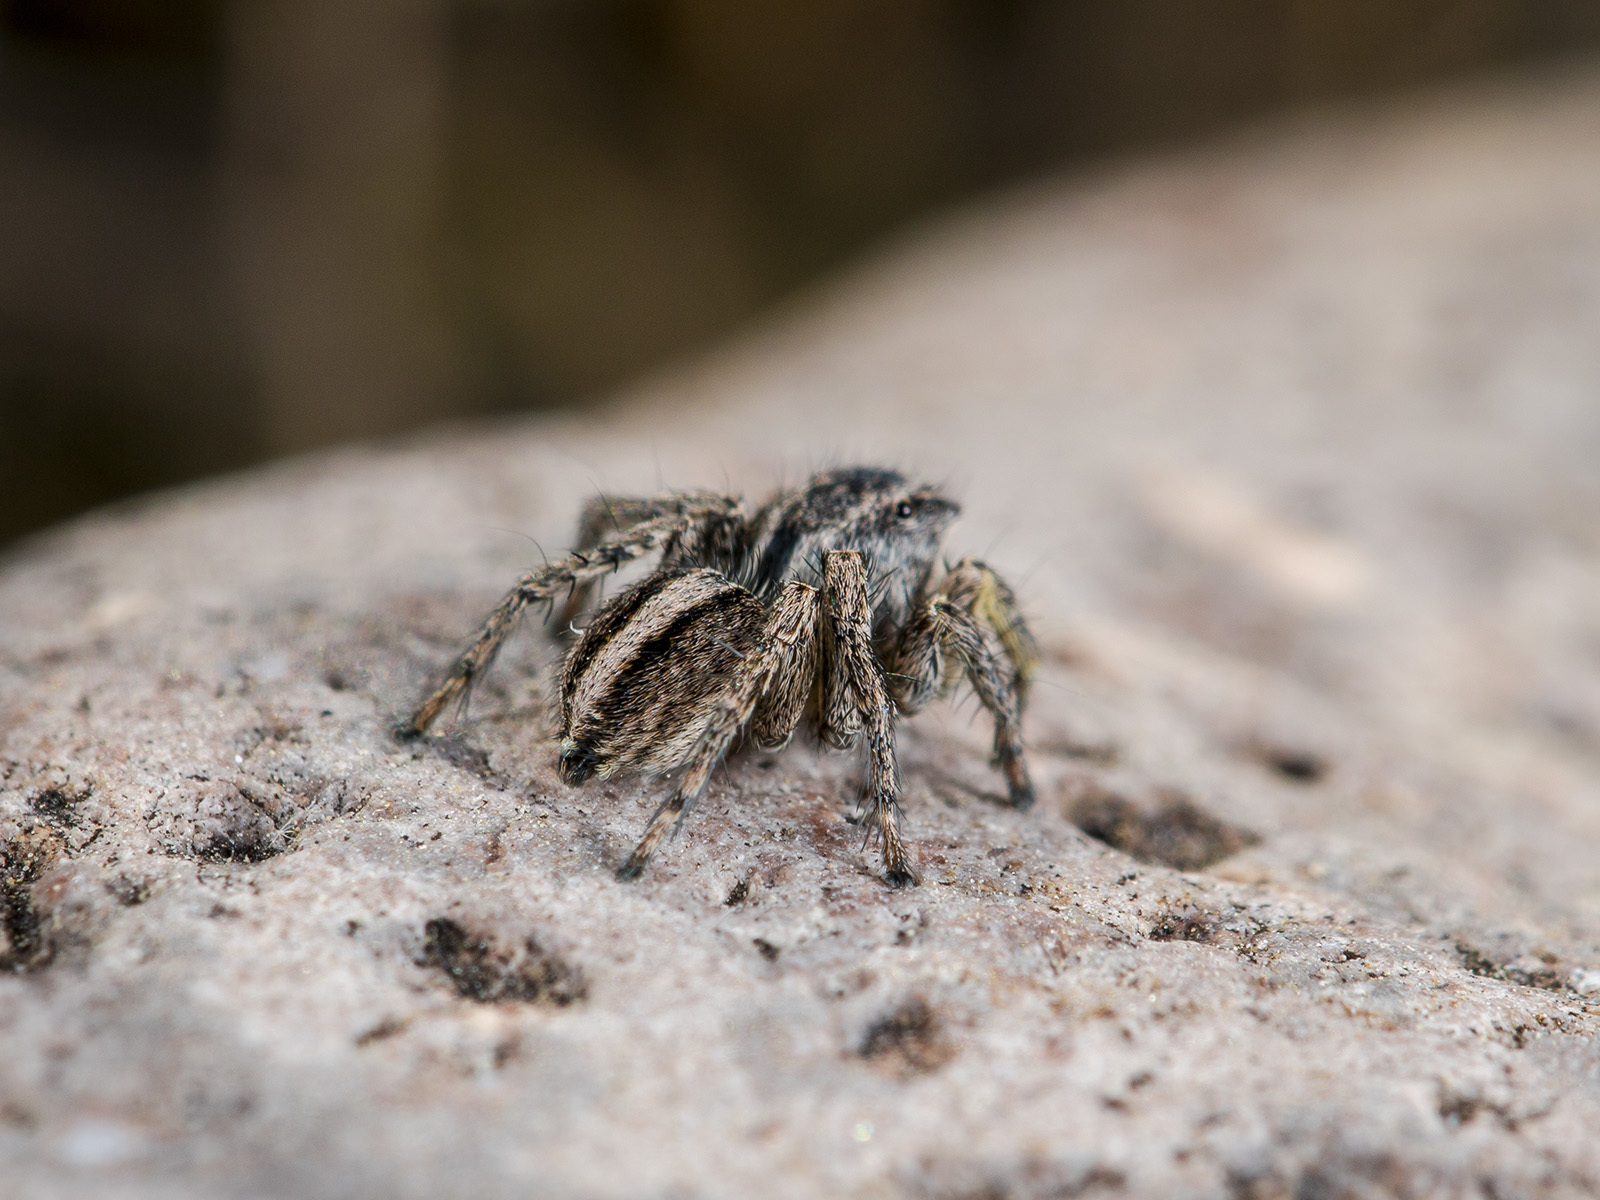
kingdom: Animalia
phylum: Arthropoda
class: Arachnida
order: Araneae
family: Salticidae
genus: Aelurillus
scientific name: Aelurillus v-insignitus
